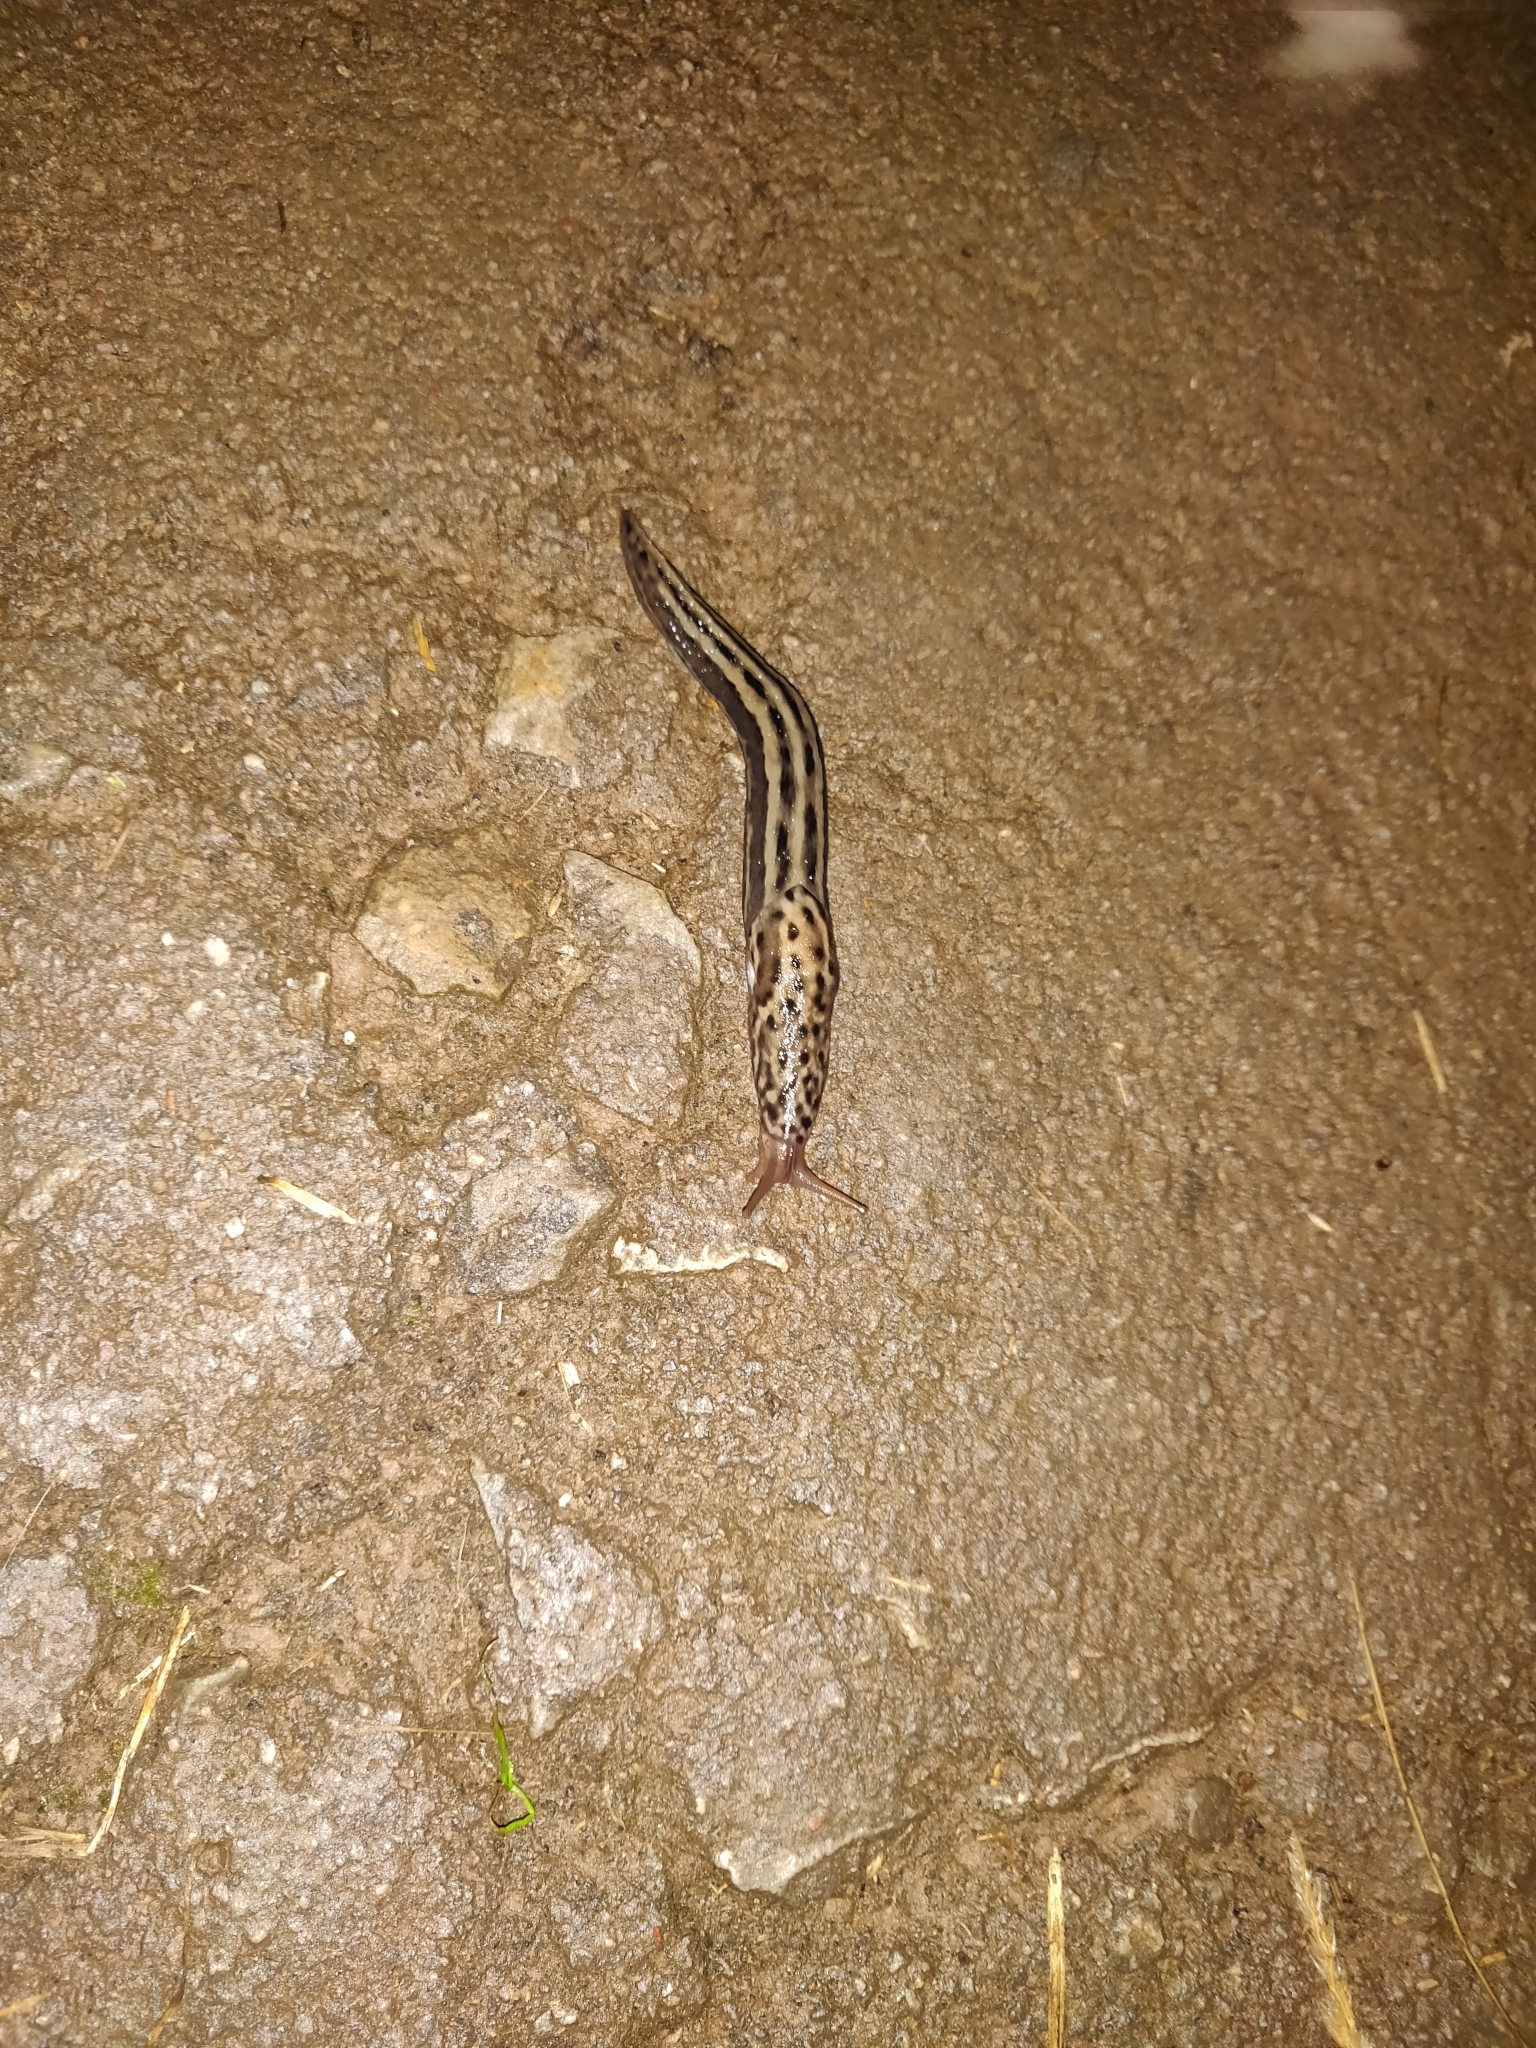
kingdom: Animalia
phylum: Mollusca
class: Gastropoda
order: Stylommatophora
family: Limacidae
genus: Limax
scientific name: Limax maximus
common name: Great grey slug
